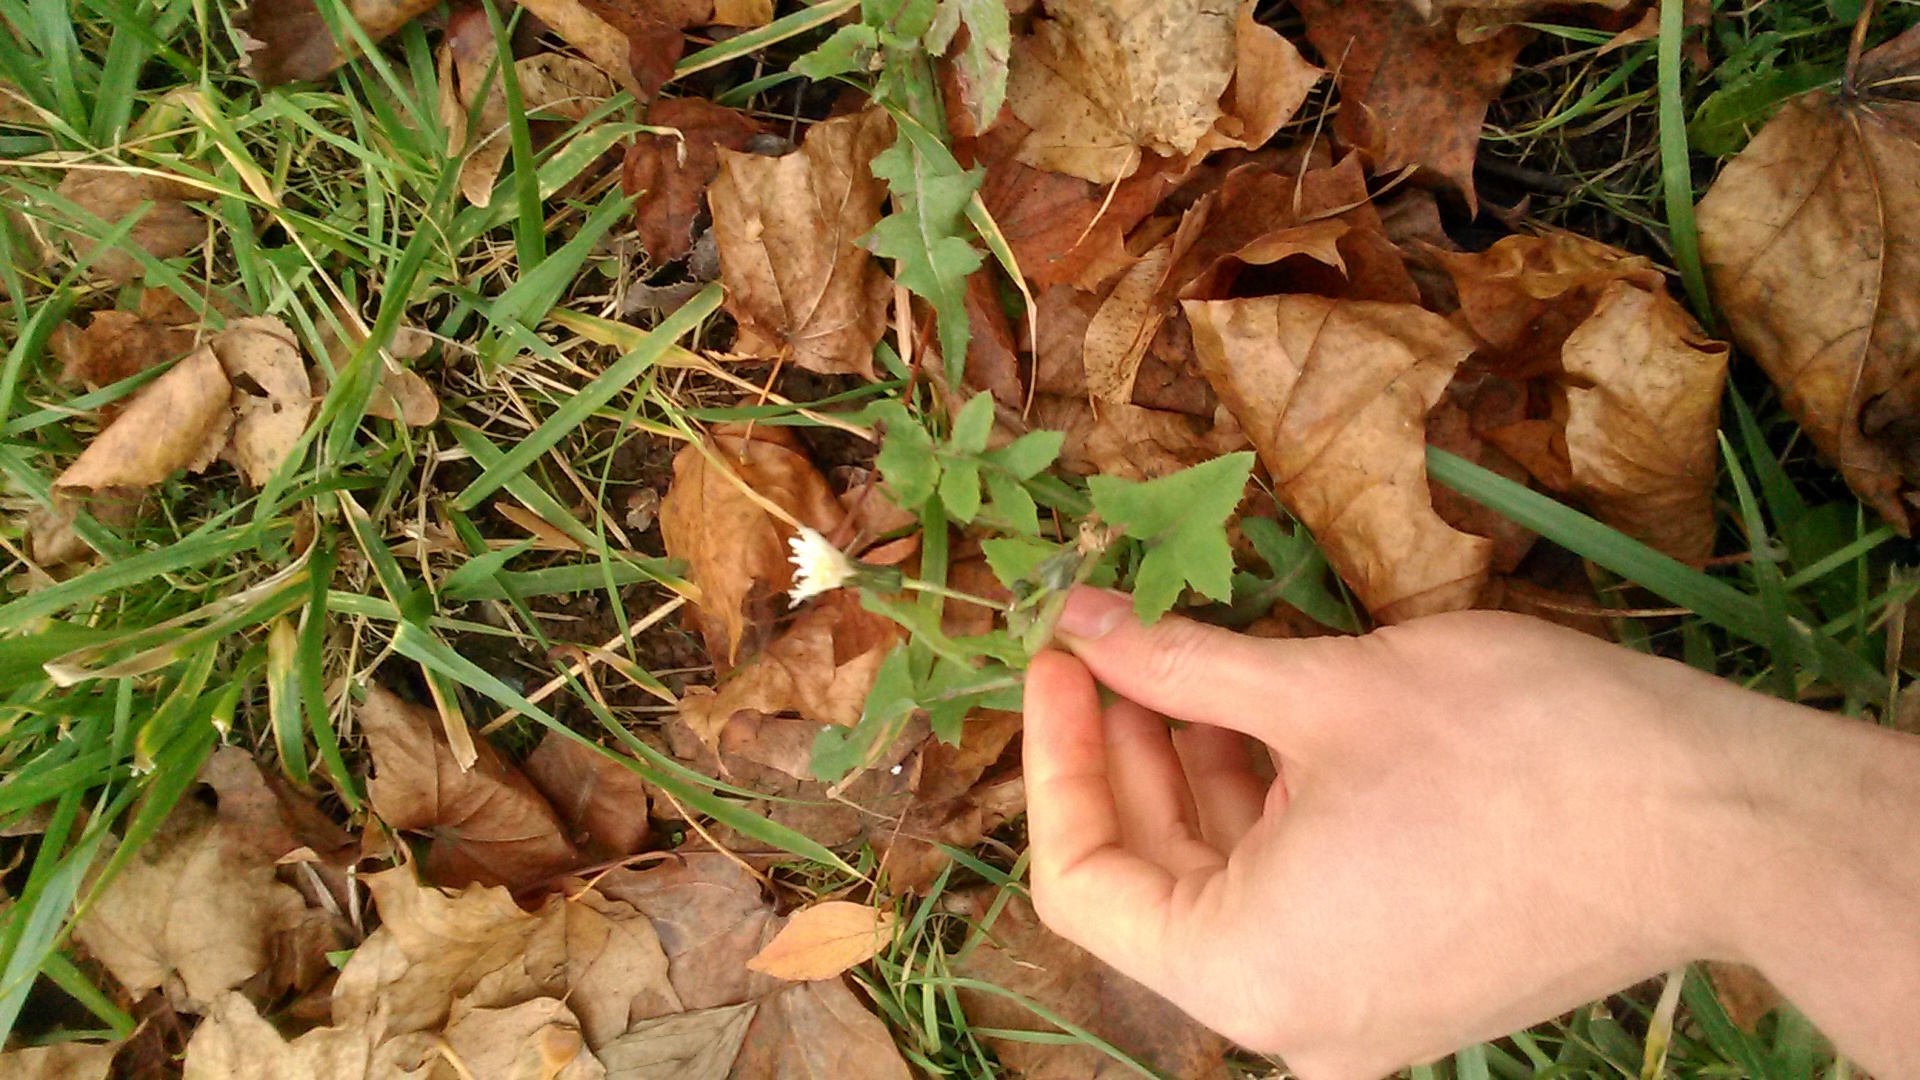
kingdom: Plantae
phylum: Tracheophyta
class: Magnoliopsida
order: Asterales
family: Asteraceae
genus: Sonchus
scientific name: Sonchus oleraceus
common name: Common sowthistle
